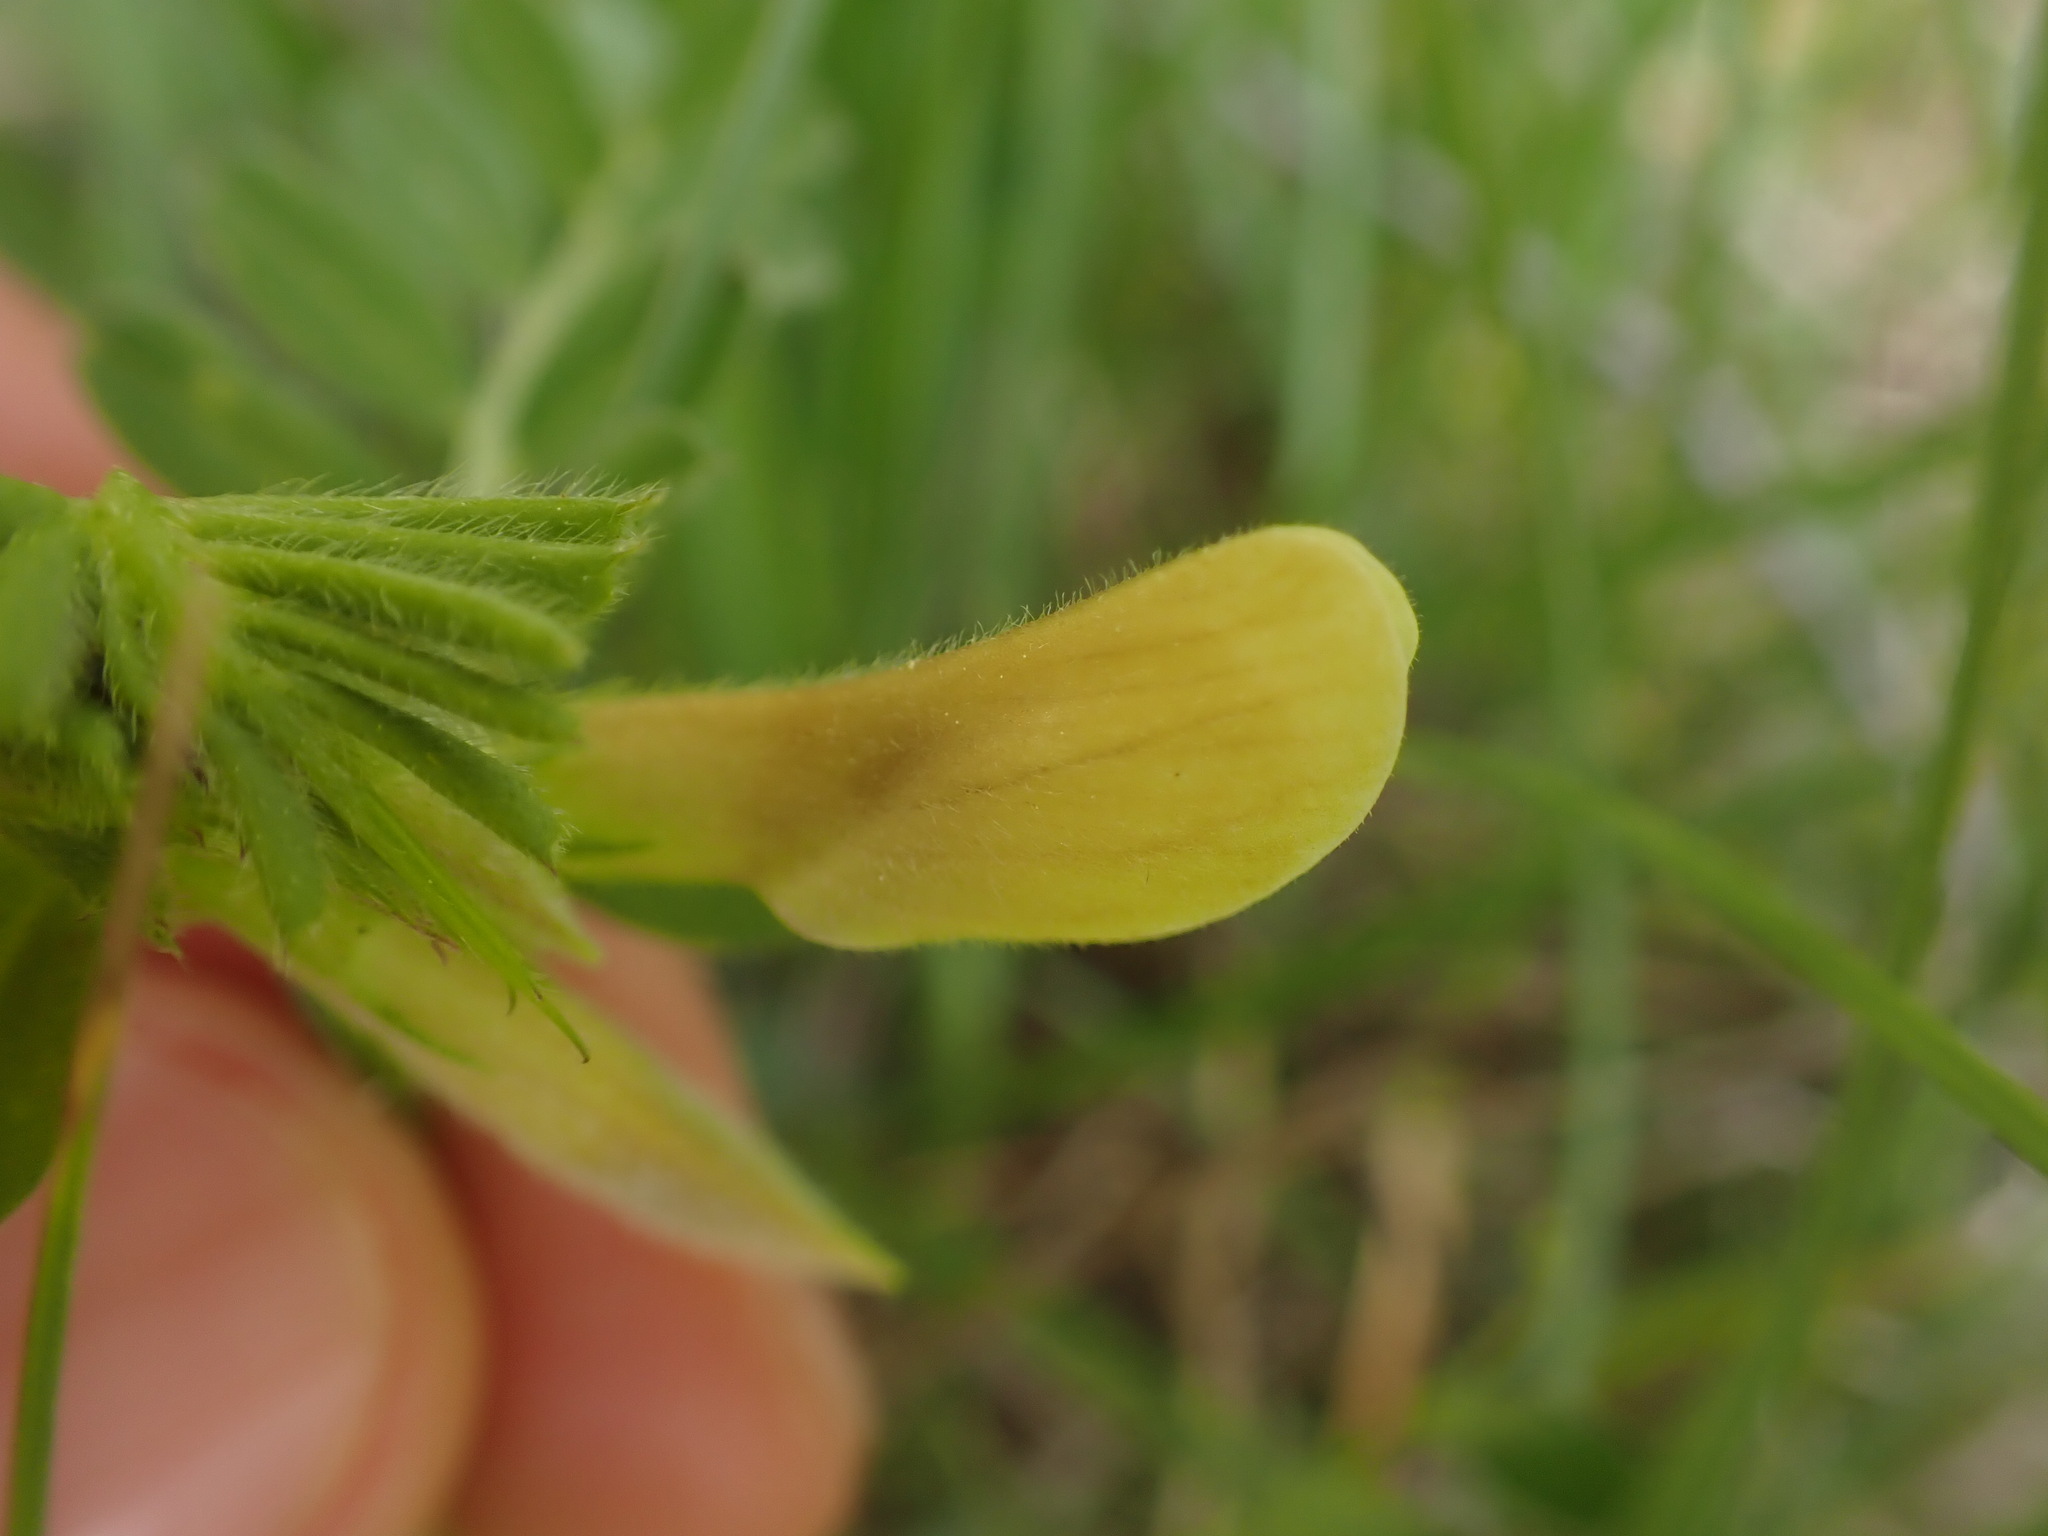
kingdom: Plantae
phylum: Tracheophyta
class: Magnoliopsida
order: Fabales
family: Fabaceae
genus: Vicia
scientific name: Vicia hybrida
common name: Hairy yellow vetch
